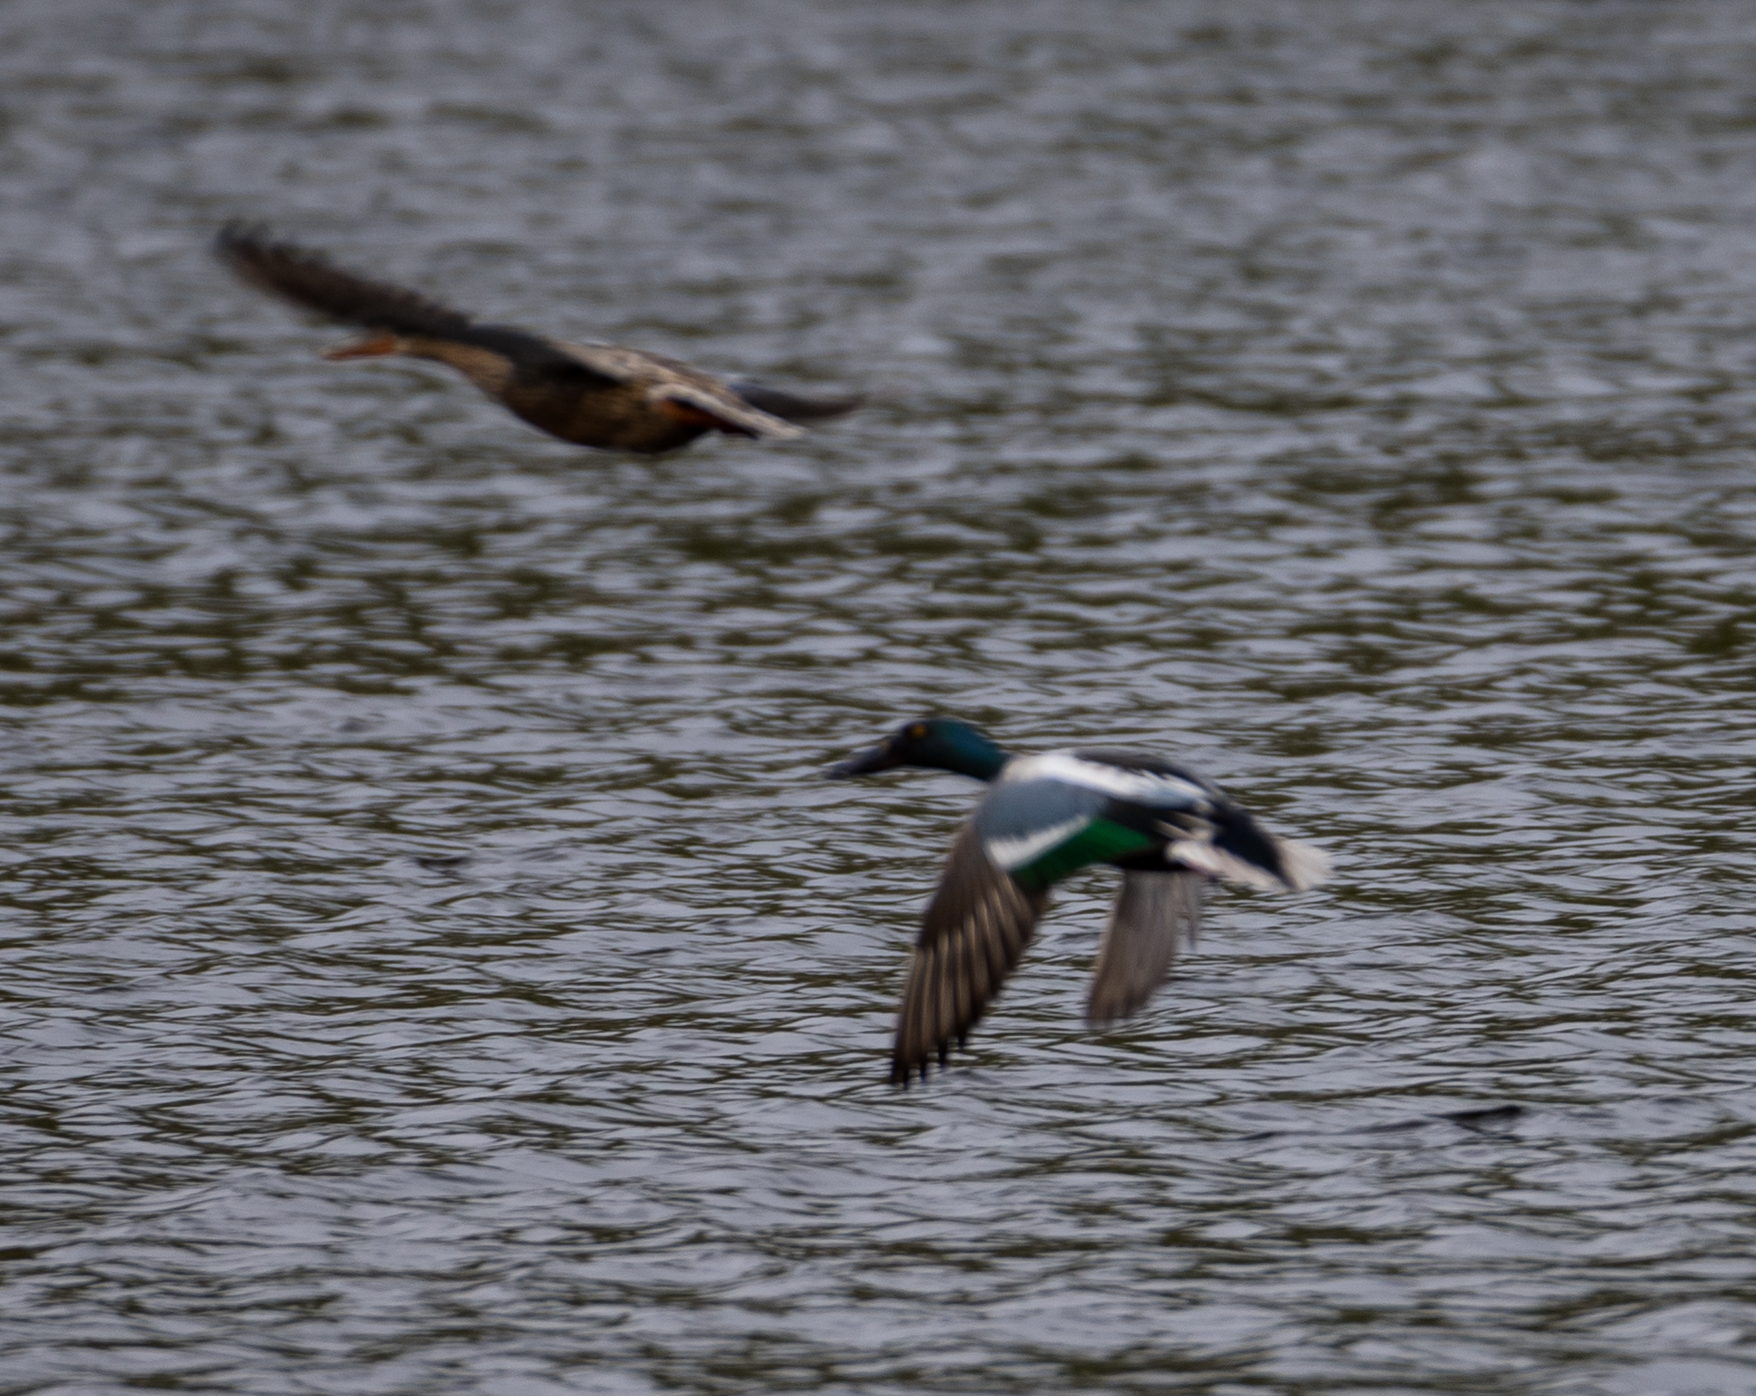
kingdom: Animalia
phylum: Chordata
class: Aves
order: Anseriformes
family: Anatidae
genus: Spatula
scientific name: Spatula clypeata
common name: Northern shoveler
